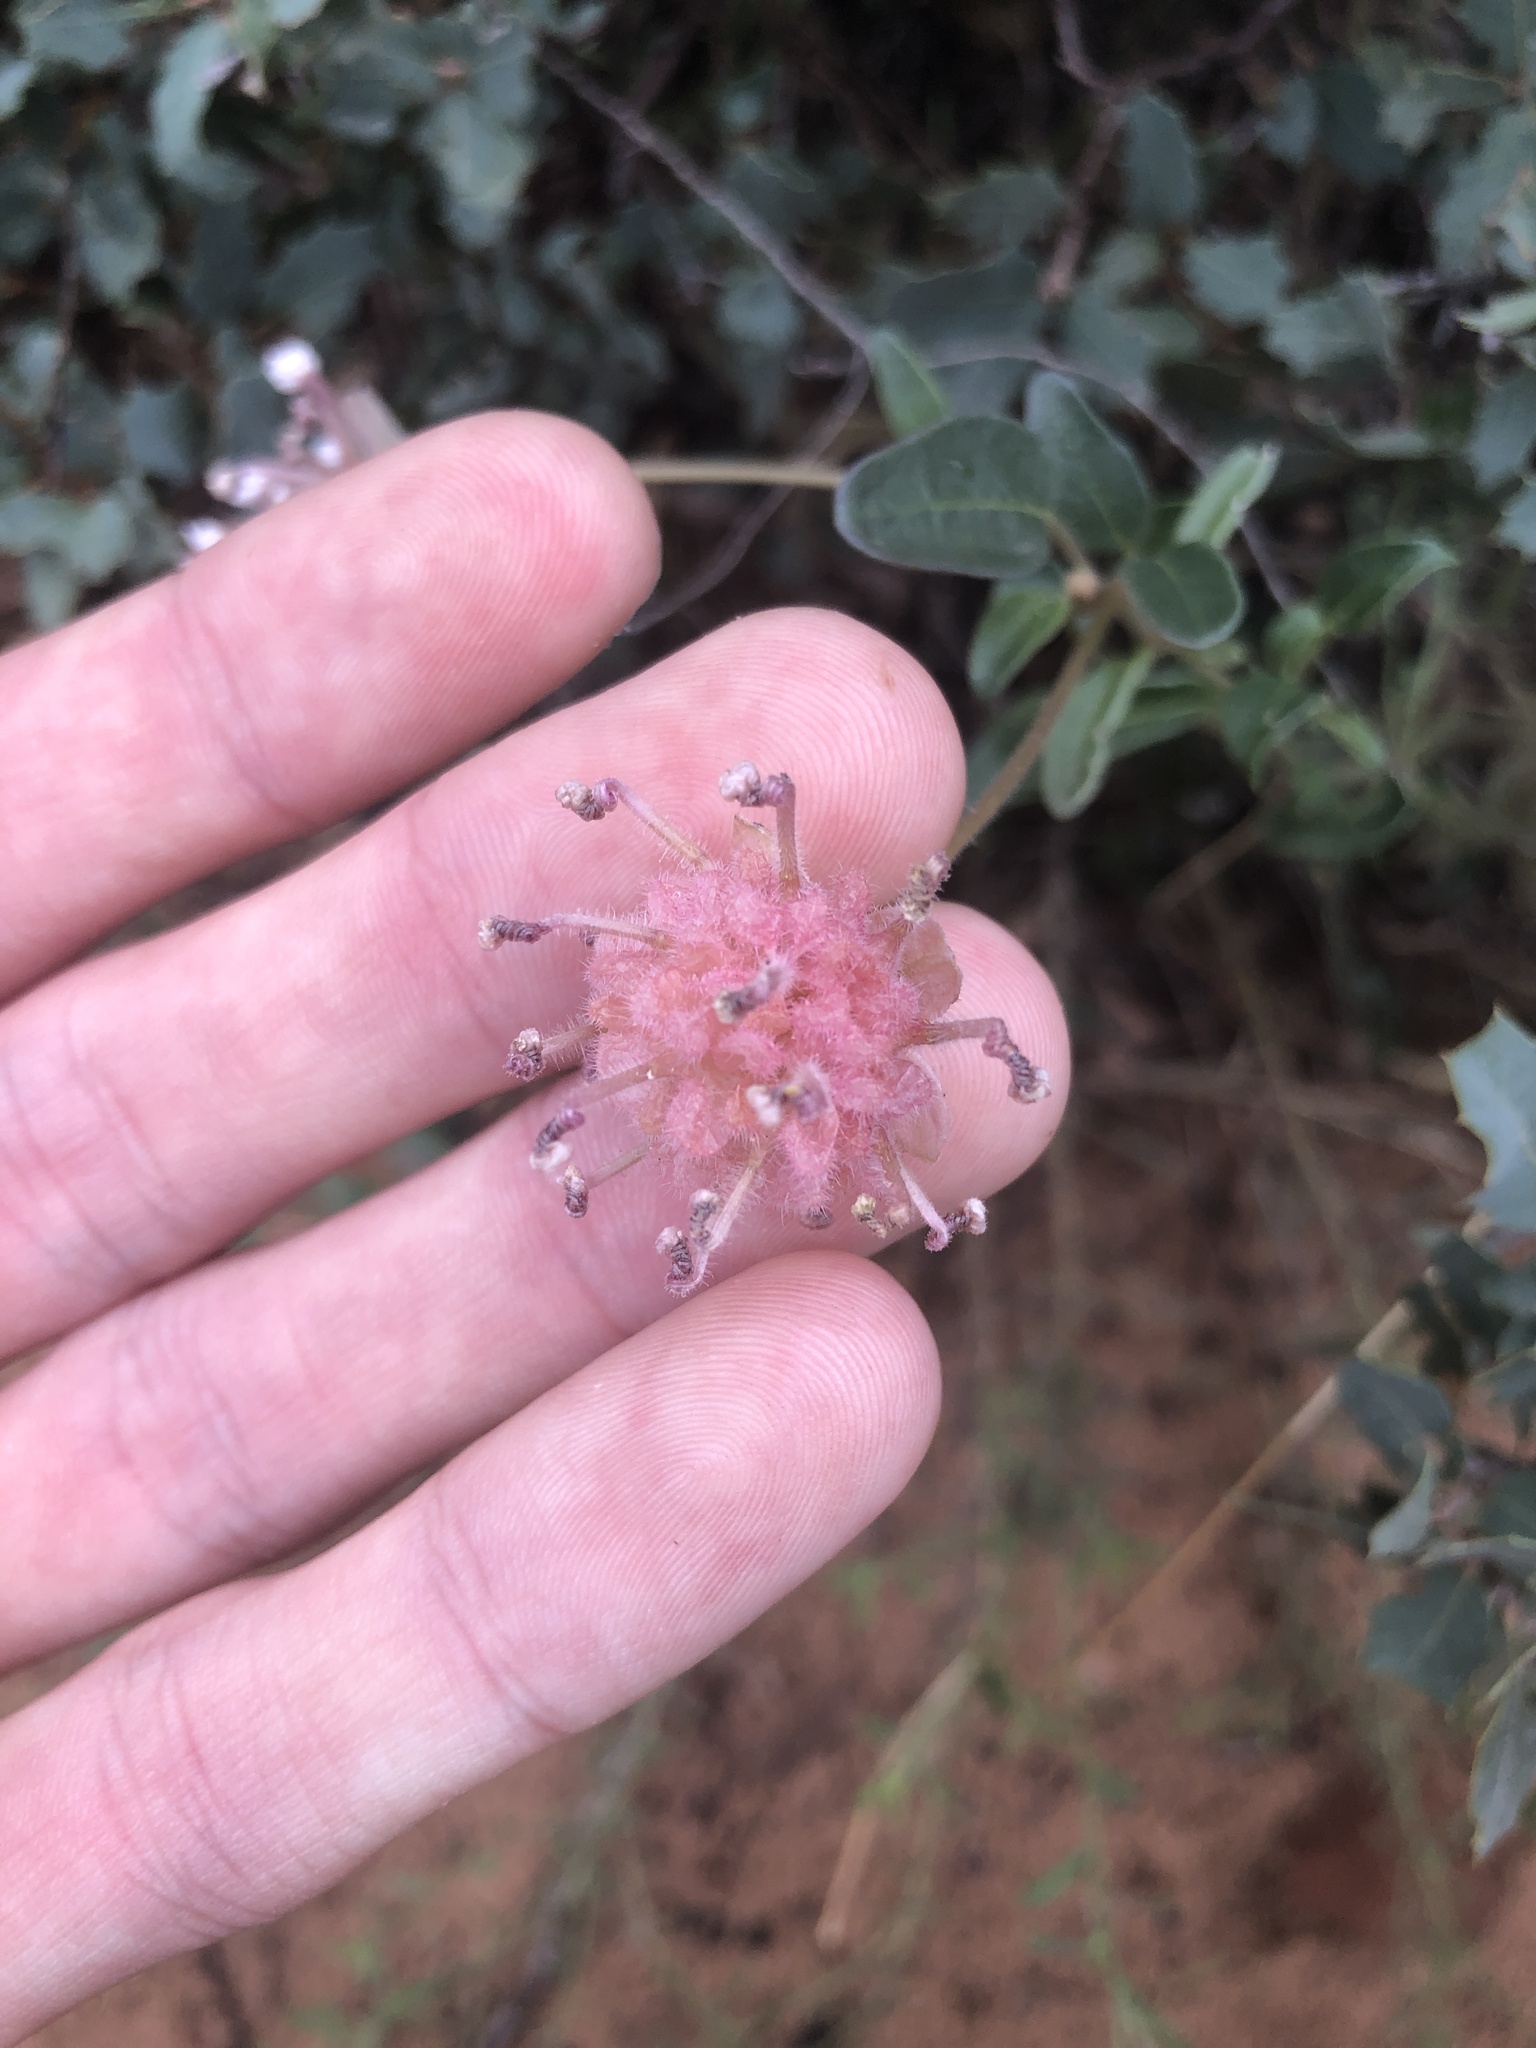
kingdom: Plantae
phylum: Tracheophyta
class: Magnoliopsida
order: Caryophyllales
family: Nyctaginaceae
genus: Abronia
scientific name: Abronia elliptica
